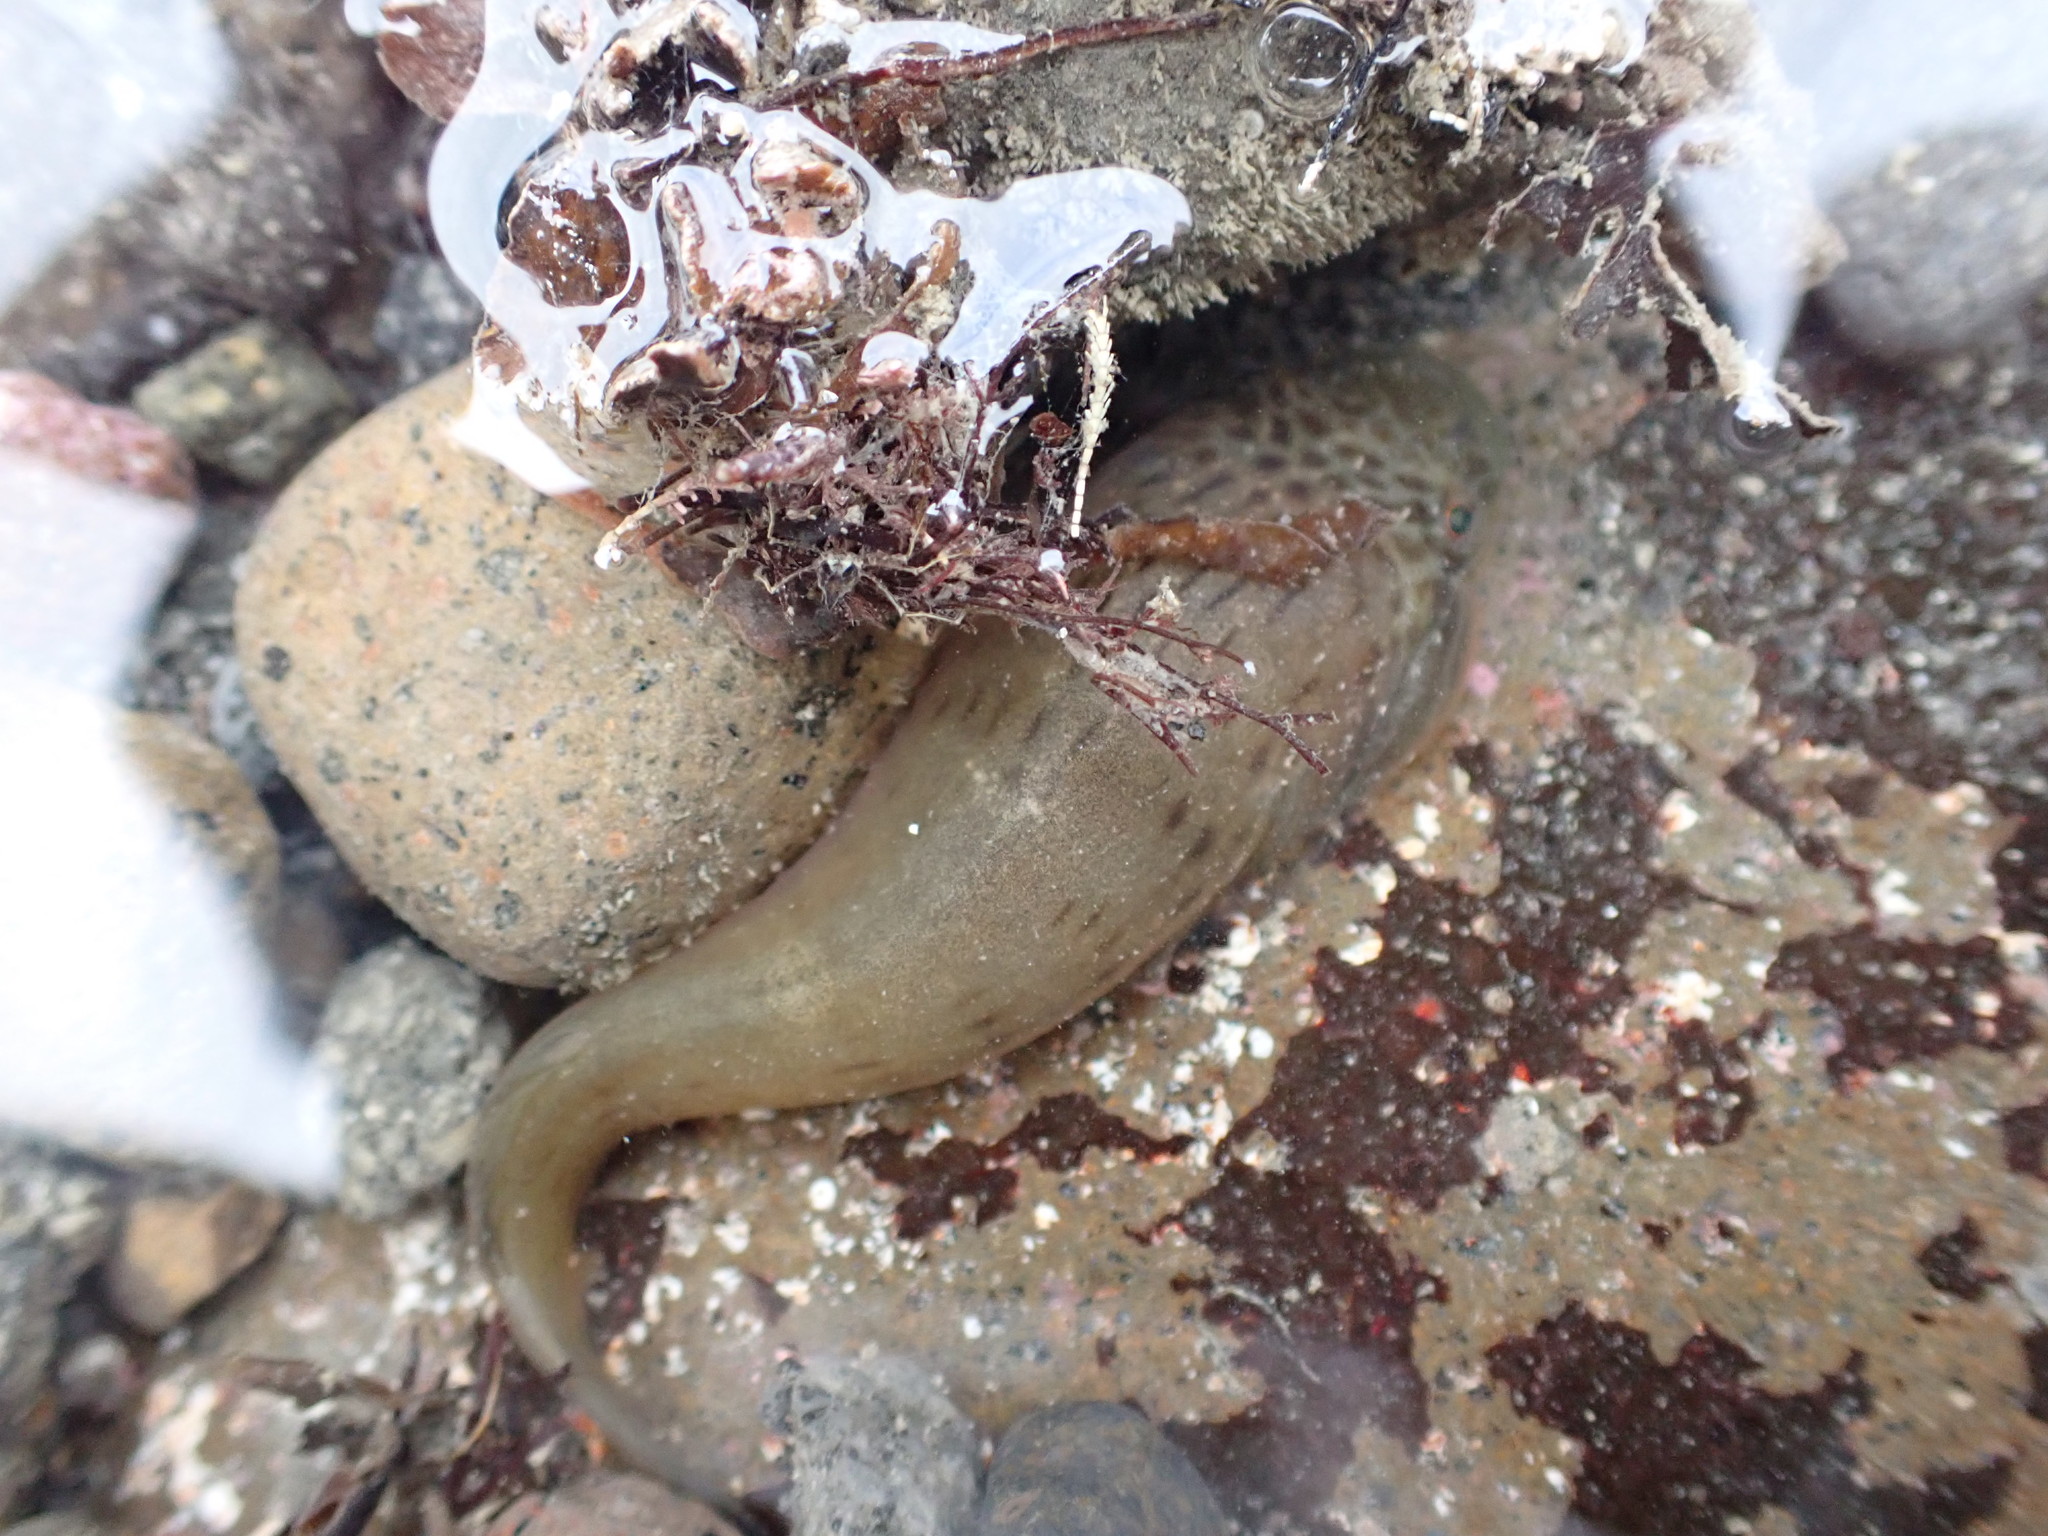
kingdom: Animalia
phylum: Chordata
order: Gobiesociformes
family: Gobiesocidae
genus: Trachelochismus
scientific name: Trachelochismus pinnulatus
